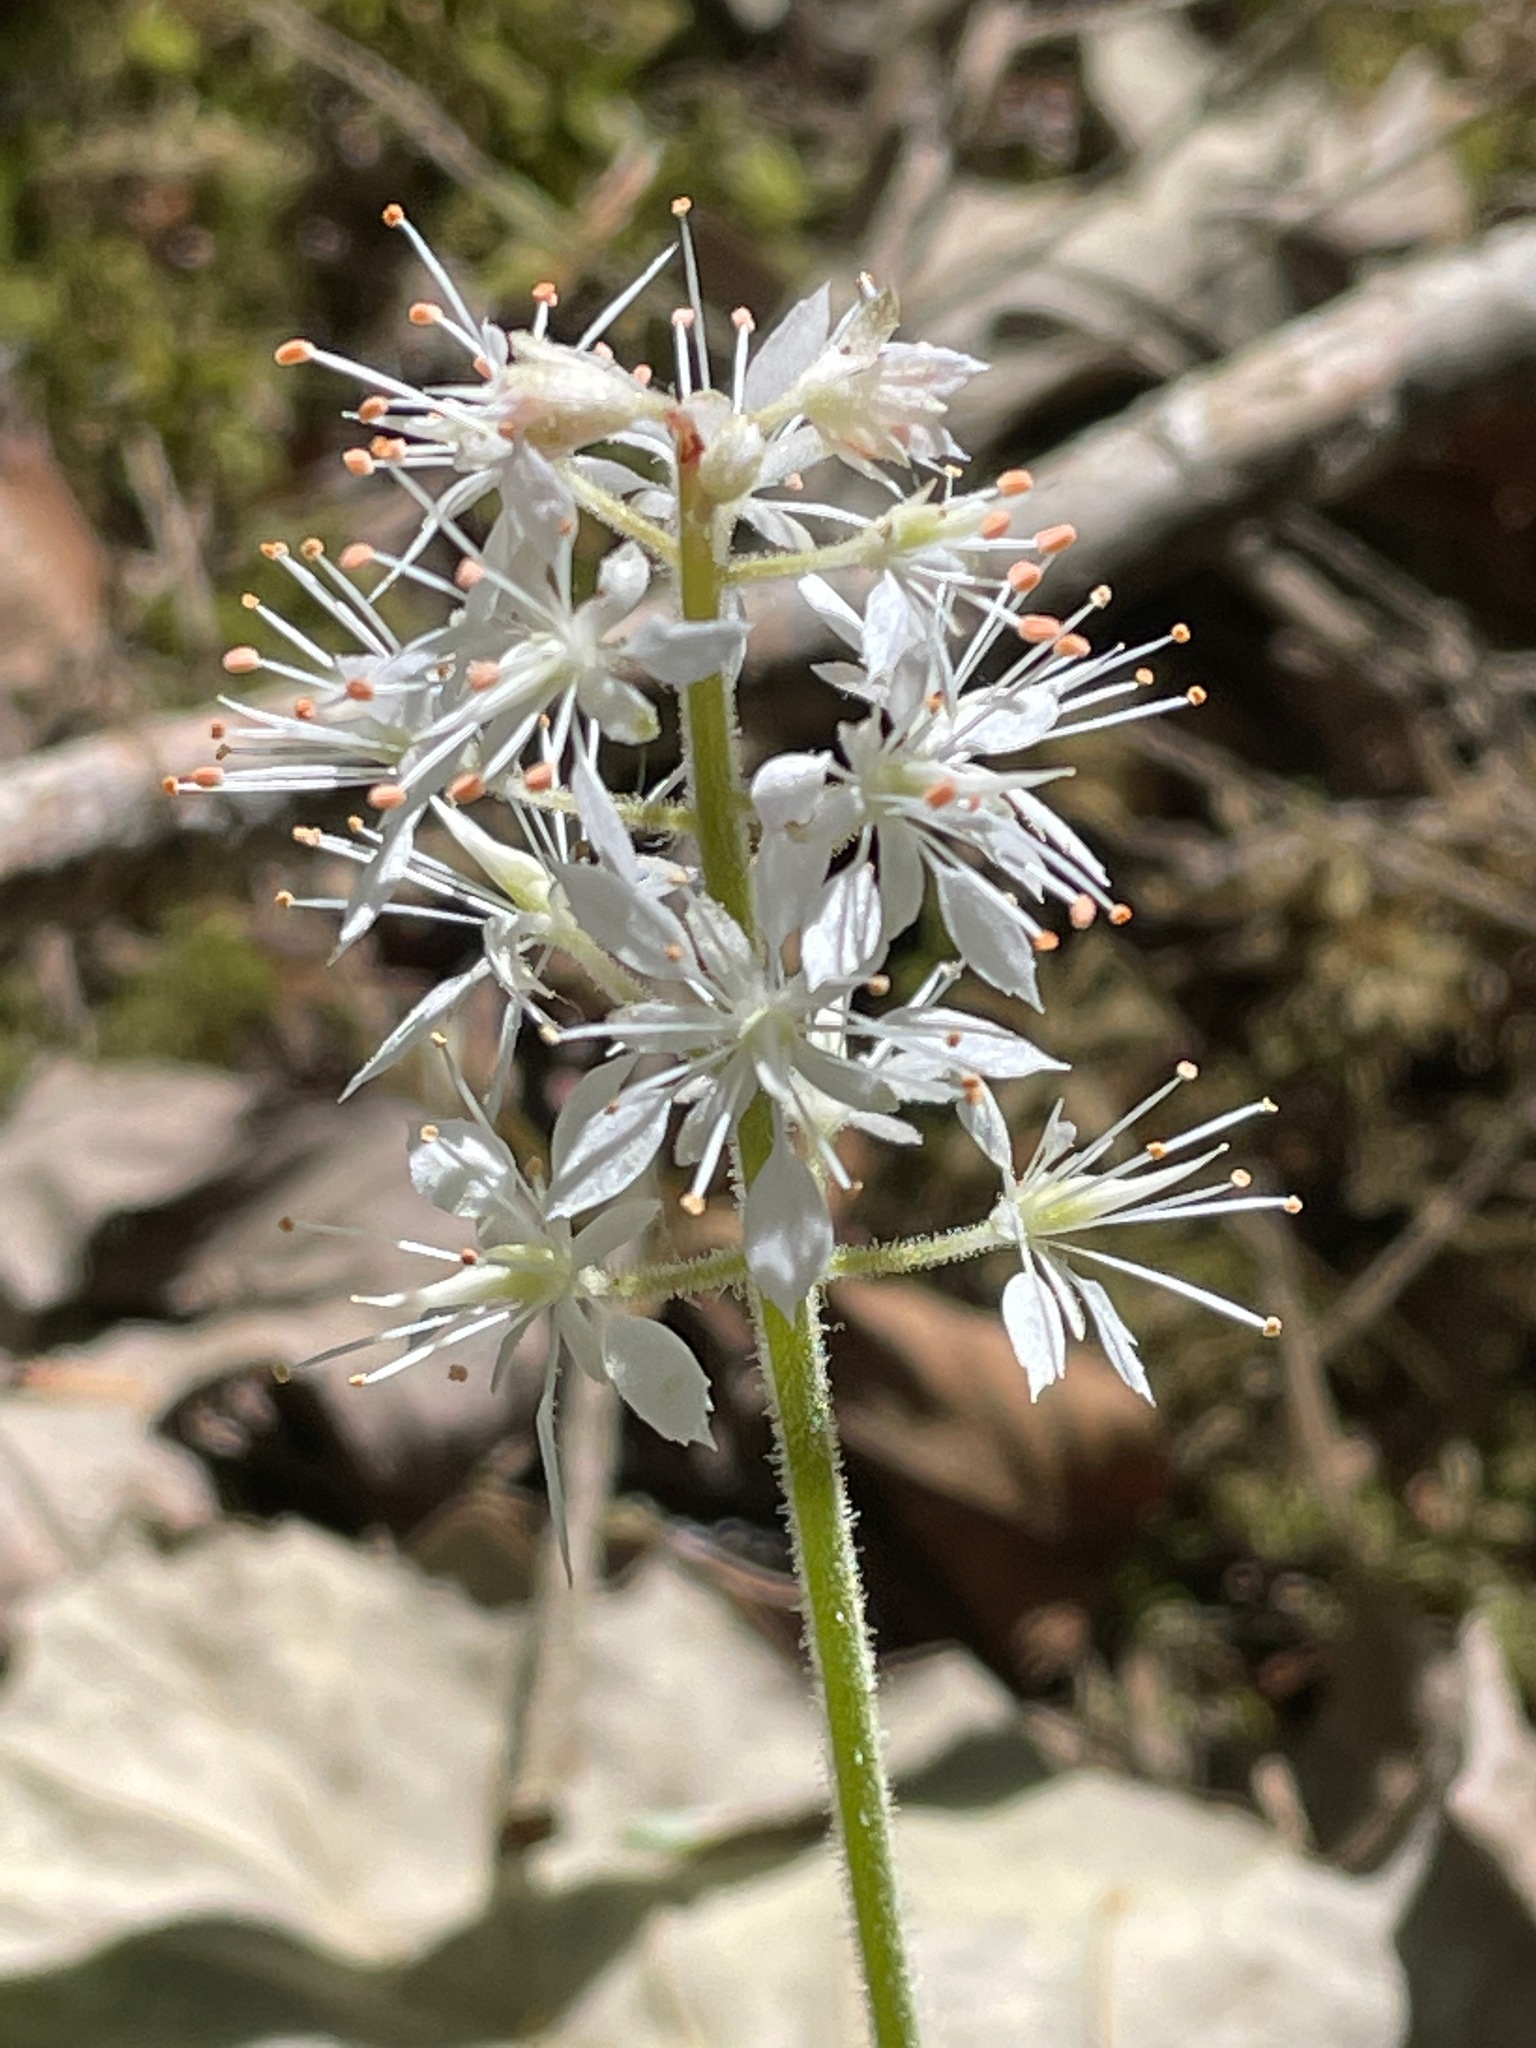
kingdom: Plantae
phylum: Tracheophyta
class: Magnoliopsida
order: Saxifragales
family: Saxifragaceae
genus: Tiarella
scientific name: Tiarella stolonifera
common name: Stoloniferous foamflower
